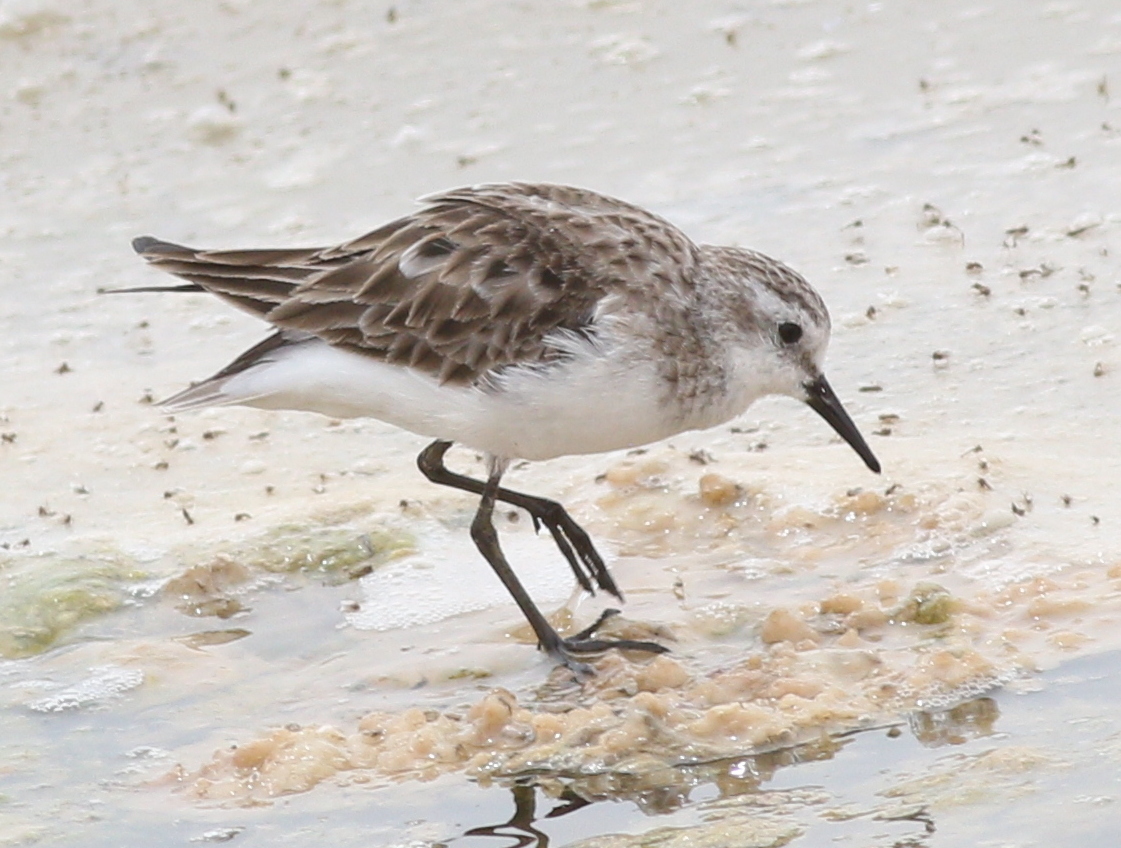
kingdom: Animalia
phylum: Chordata
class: Aves
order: Charadriiformes
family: Scolopacidae
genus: Calidris
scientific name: Calidris minuta
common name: Little stint
